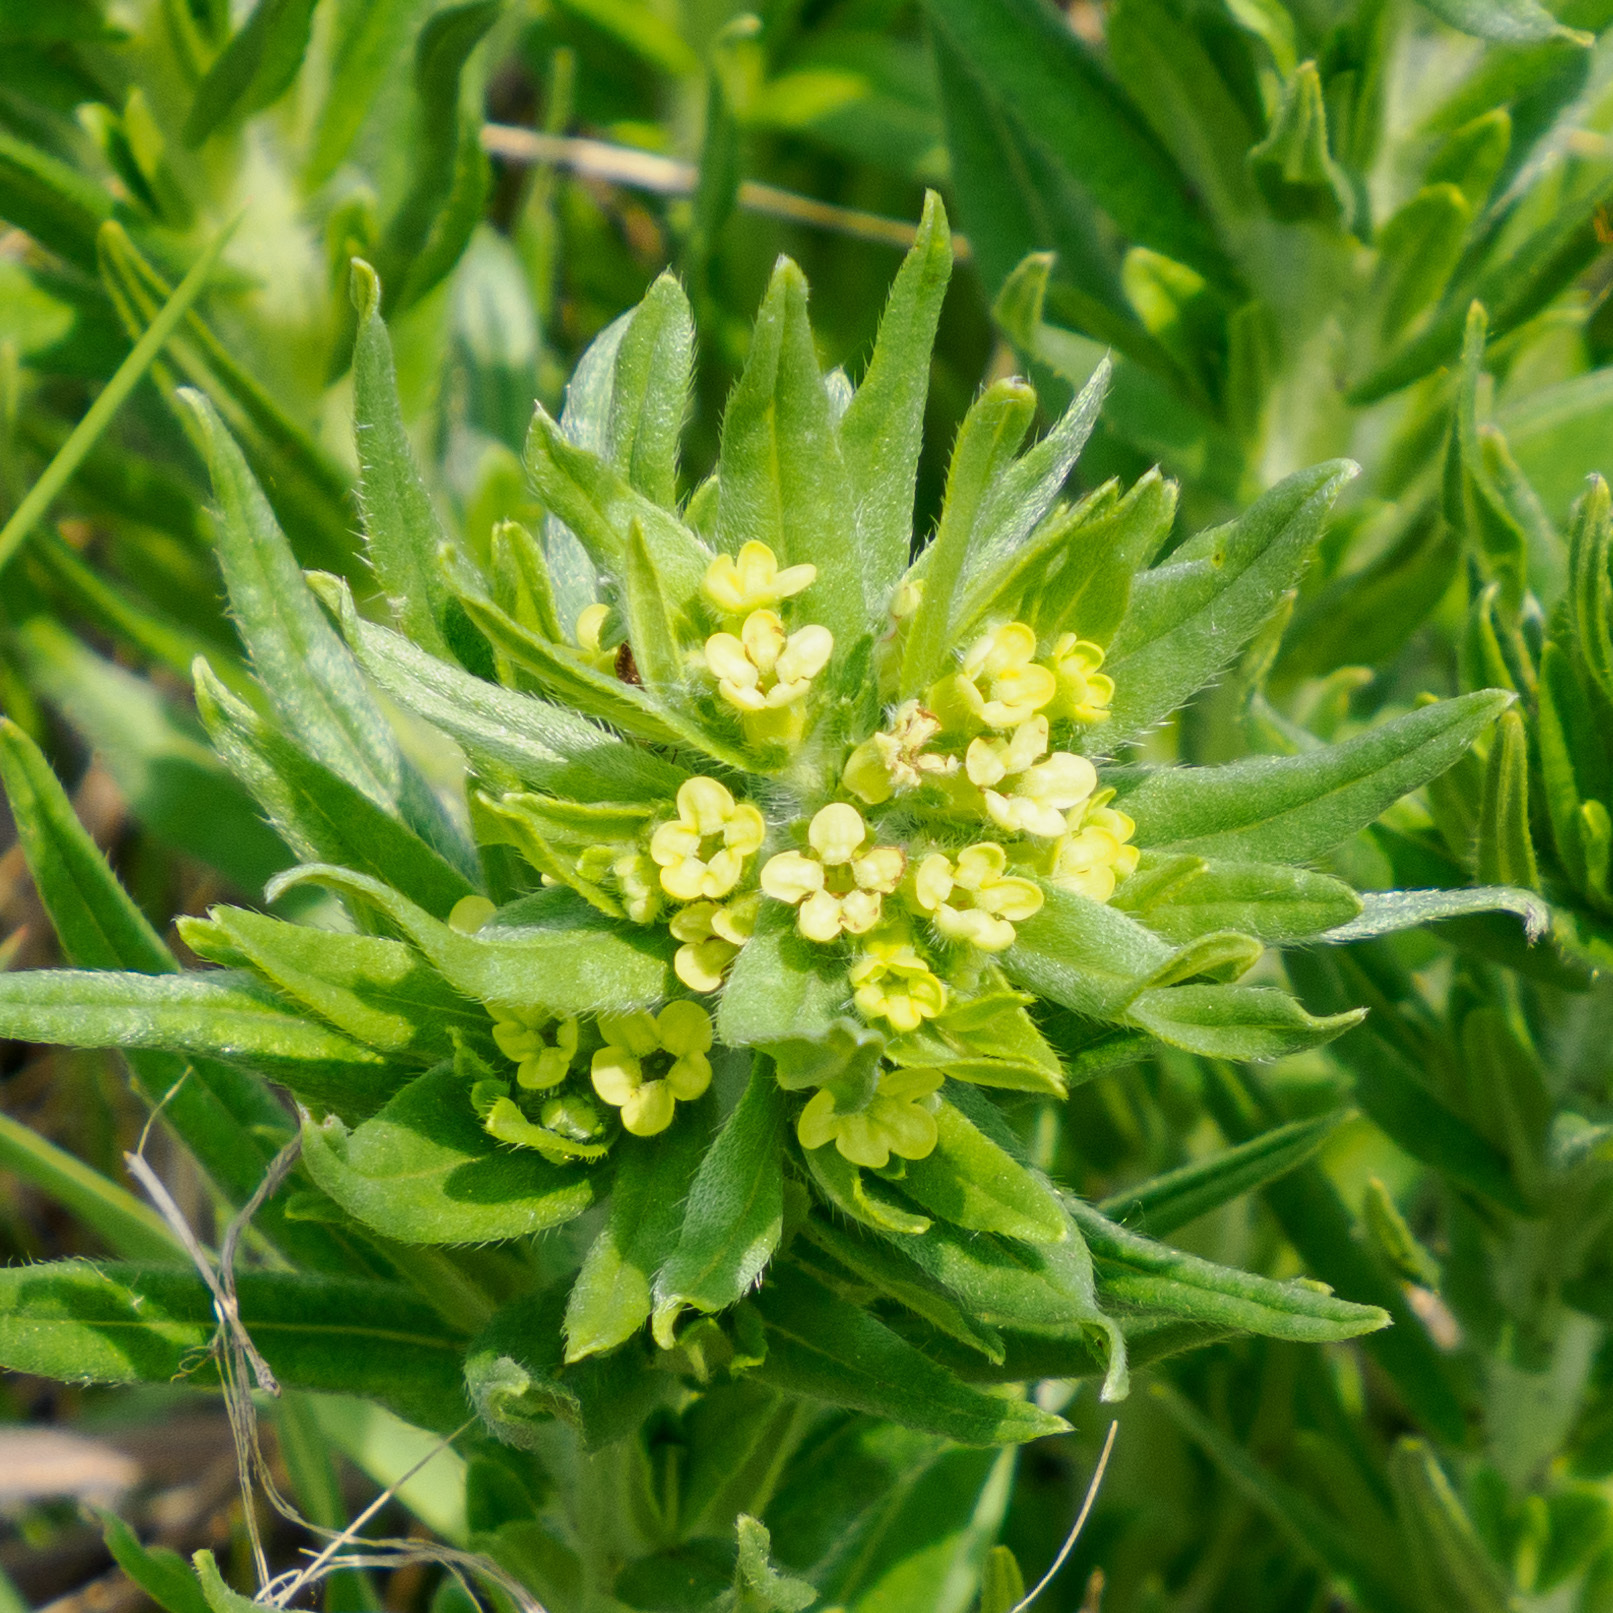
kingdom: Plantae
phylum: Tracheophyta
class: Magnoliopsida
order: Boraginales
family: Boraginaceae
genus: Lithospermum
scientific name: Lithospermum ruderale
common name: Western gromwell
